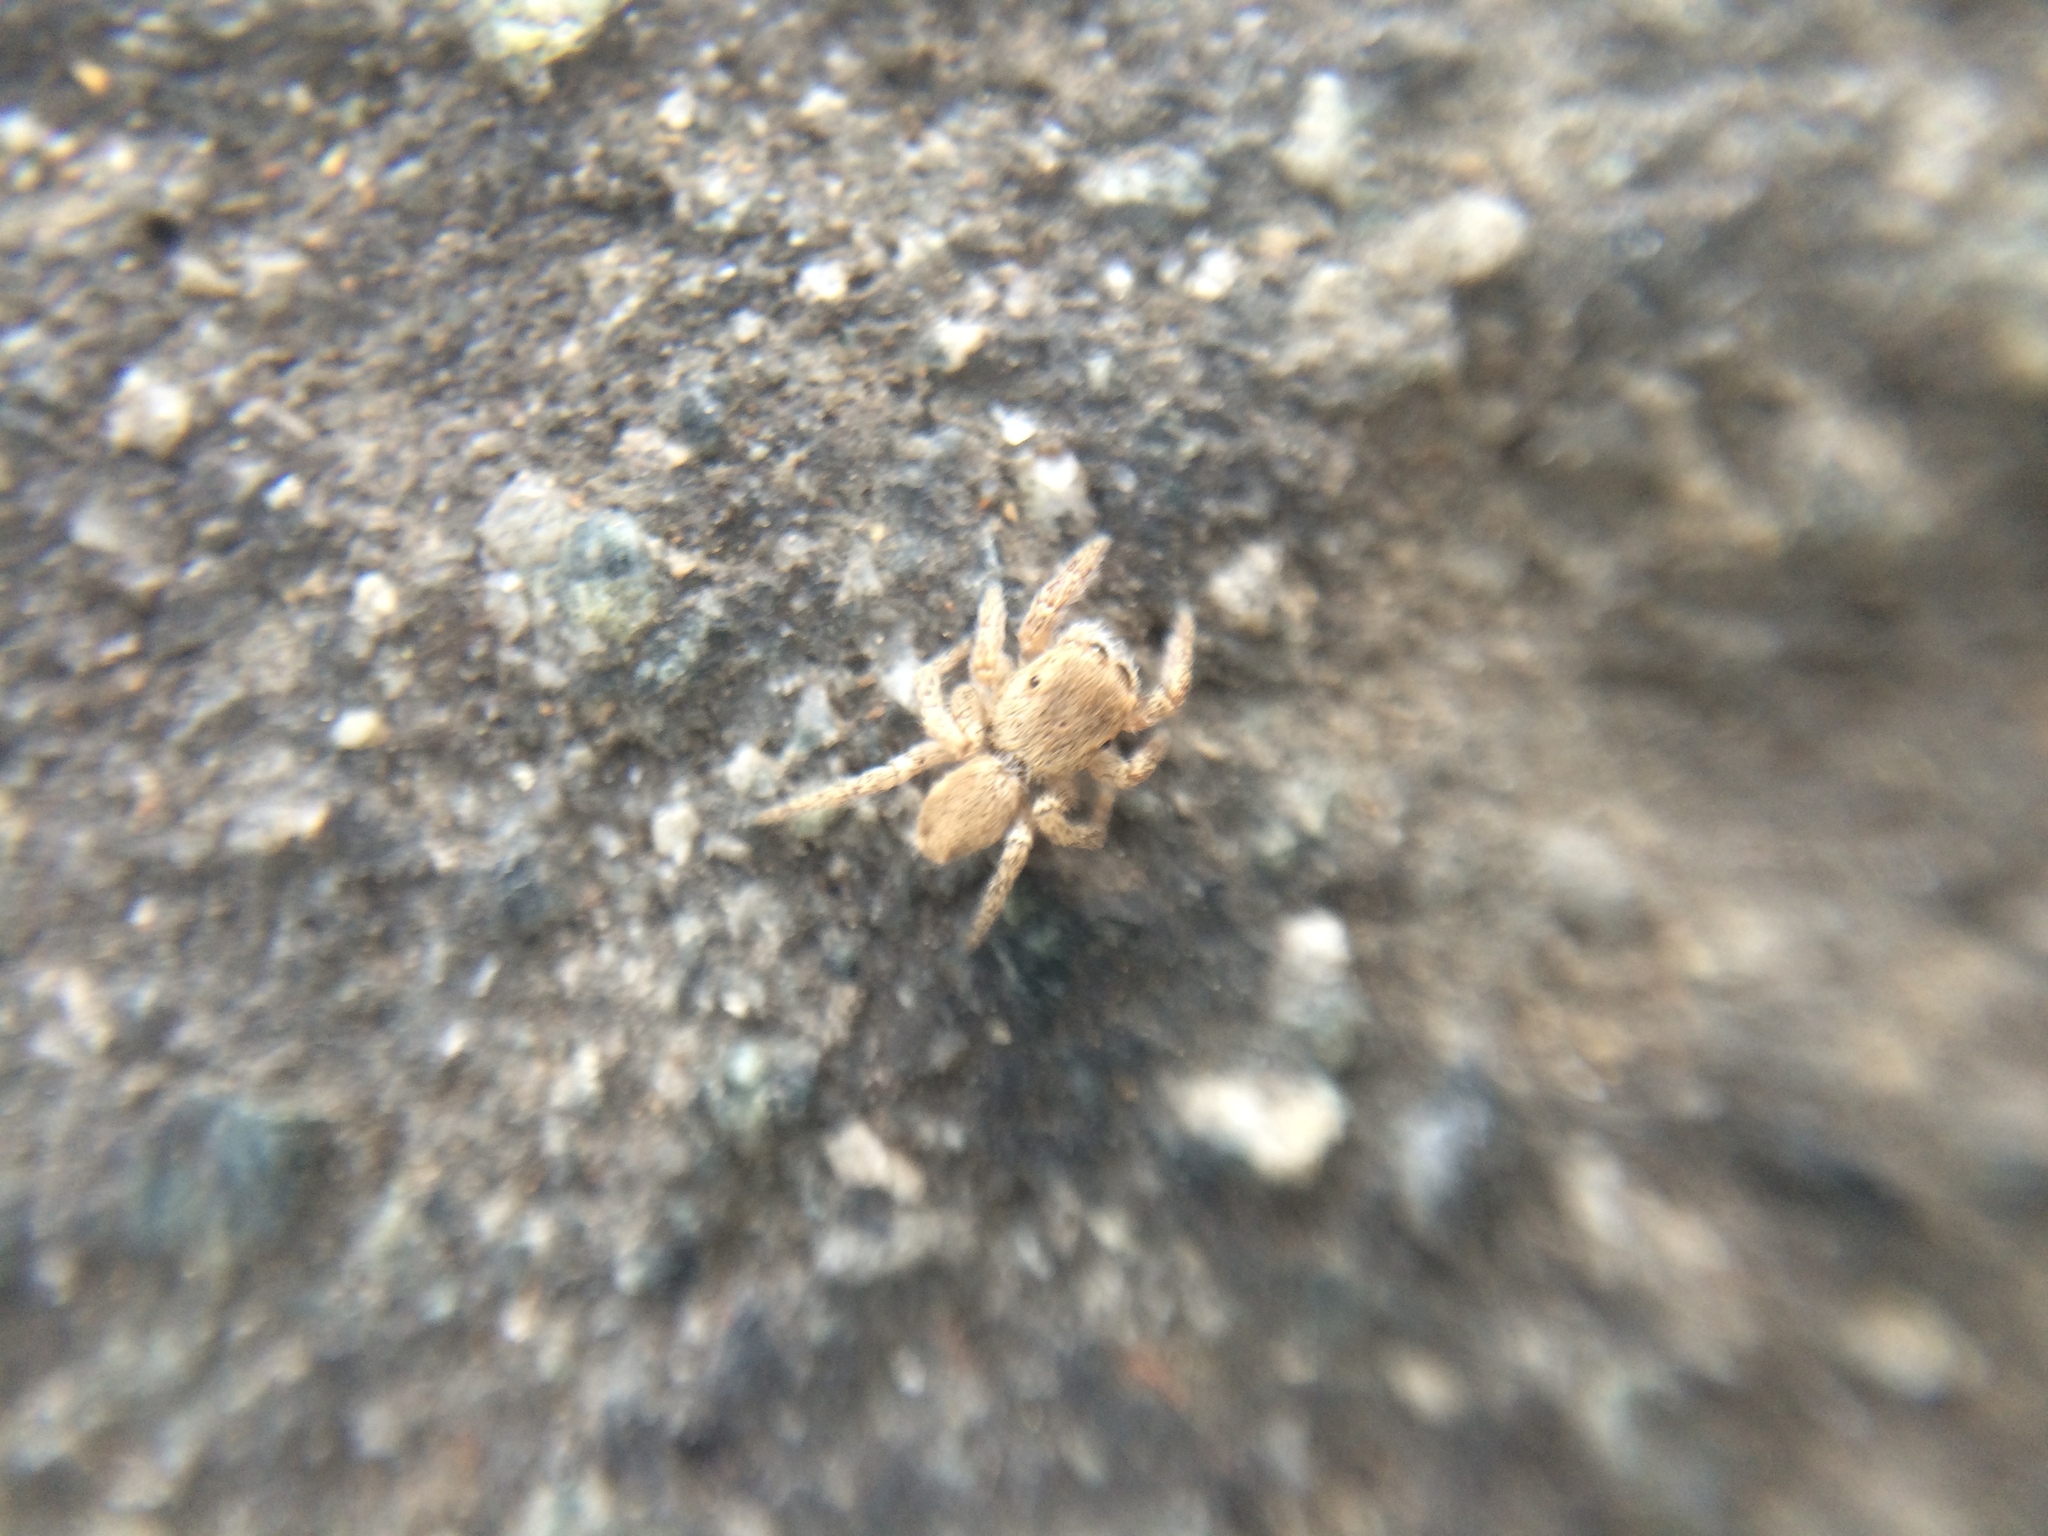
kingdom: Animalia
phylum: Arthropoda
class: Arachnida
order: Araneae
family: Salticidae
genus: Habronattus
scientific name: Habronattus
